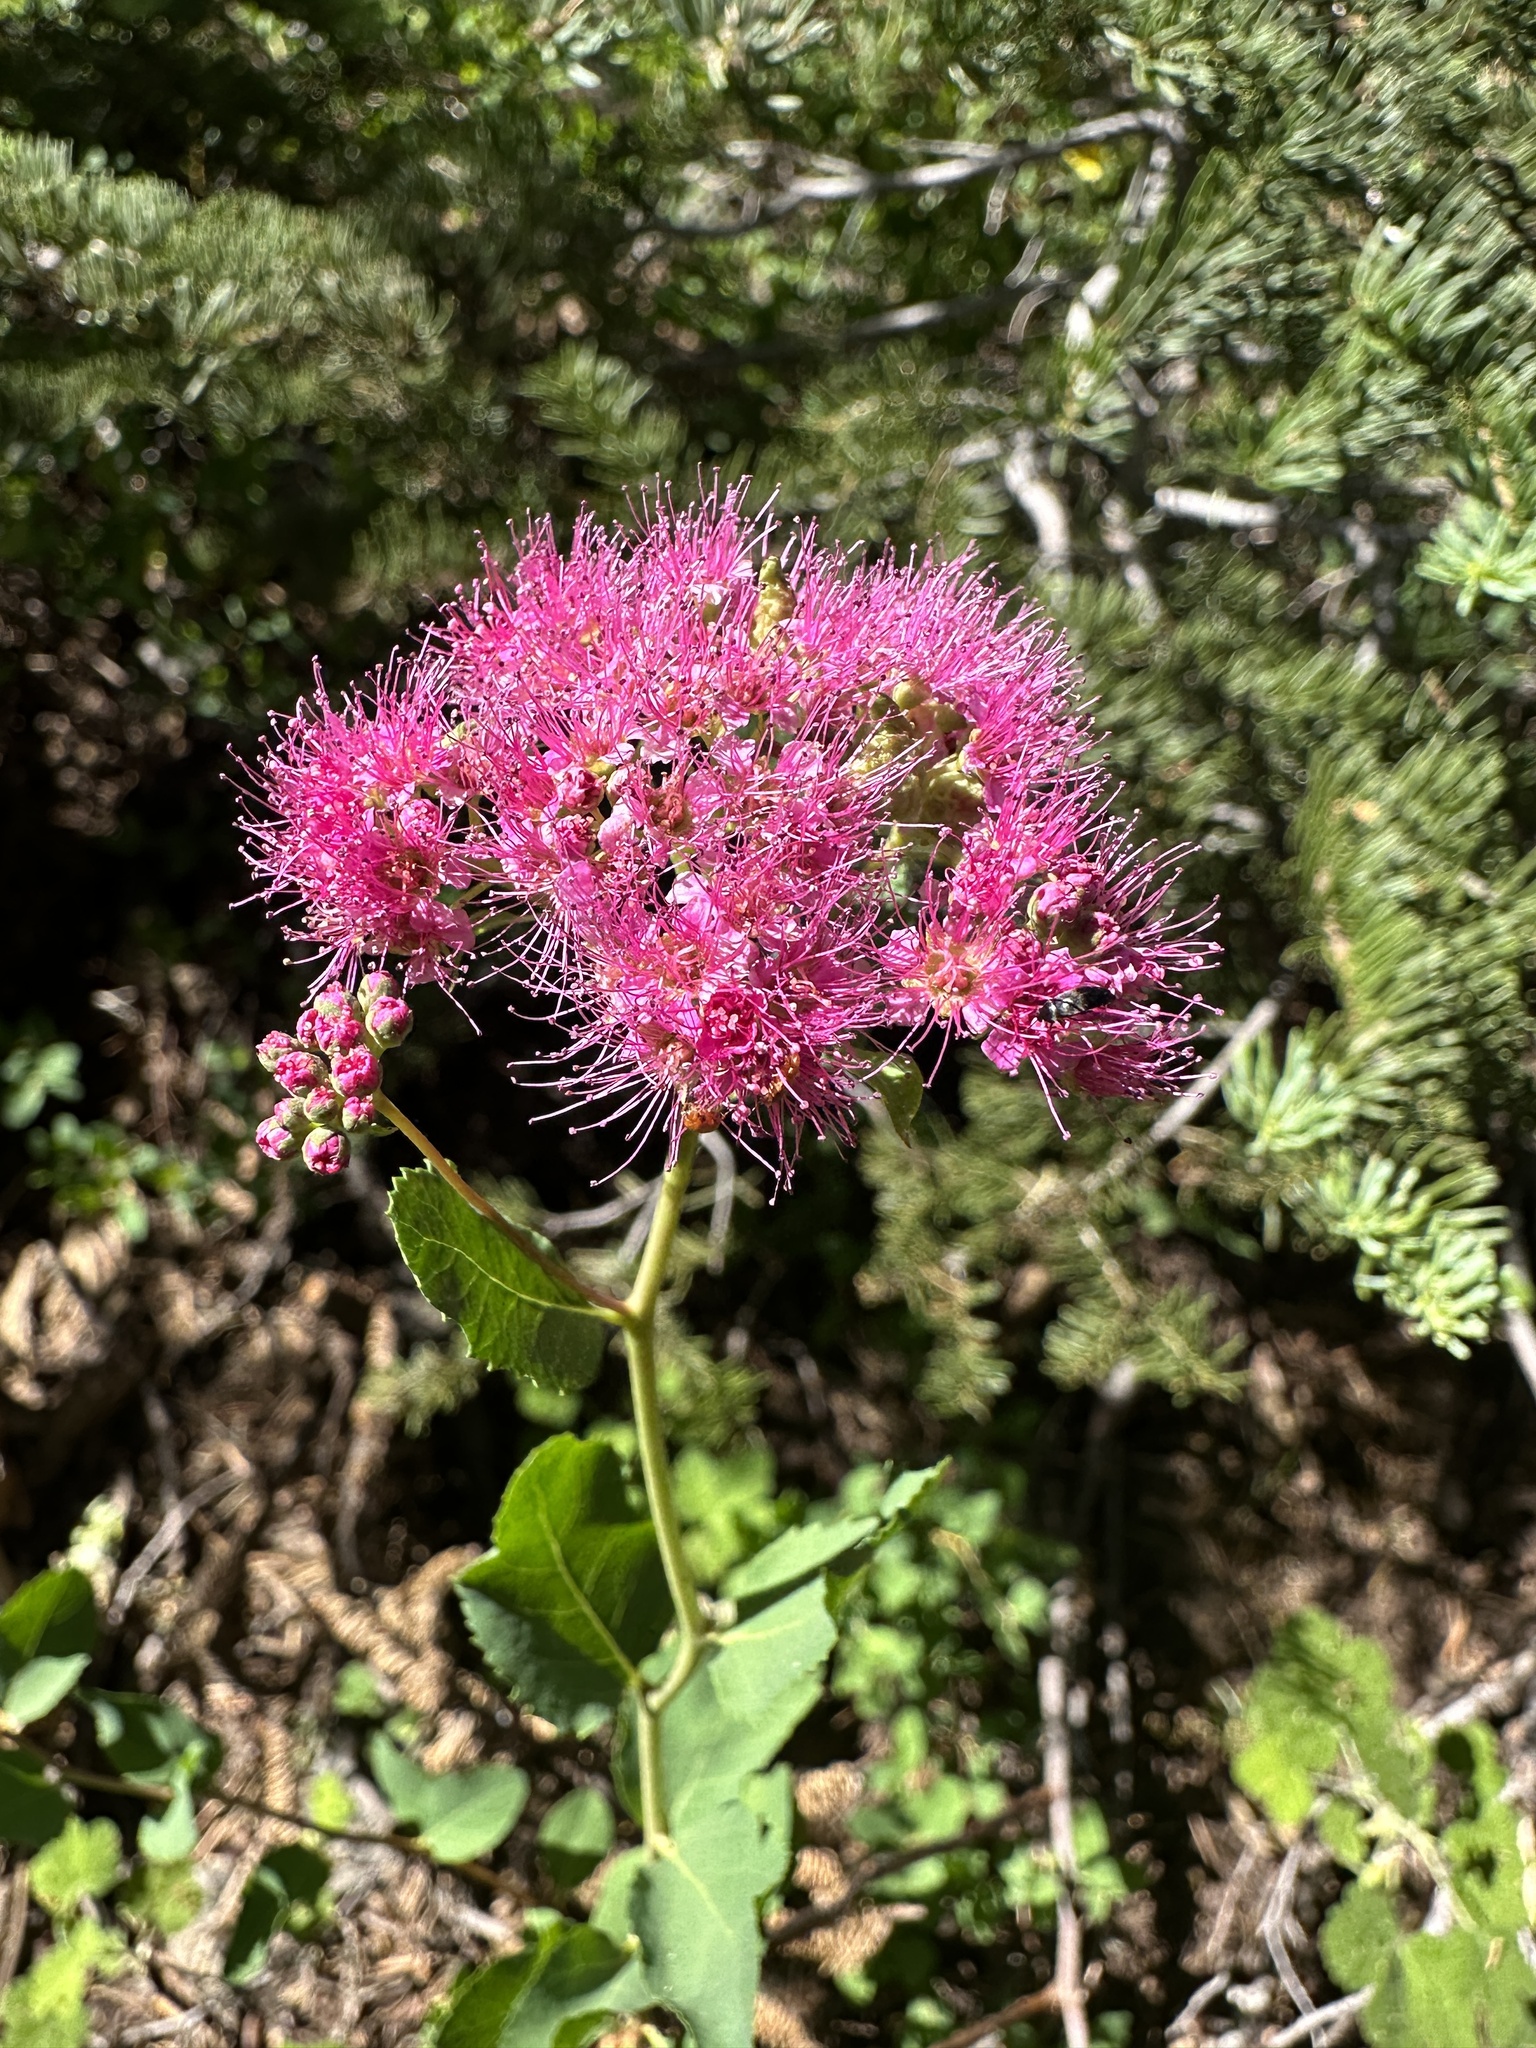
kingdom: Plantae
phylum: Tracheophyta
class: Magnoliopsida
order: Rosales
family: Rosaceae
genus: Spiraea
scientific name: Spiraea splendens
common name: Subalpine meadowsweet
